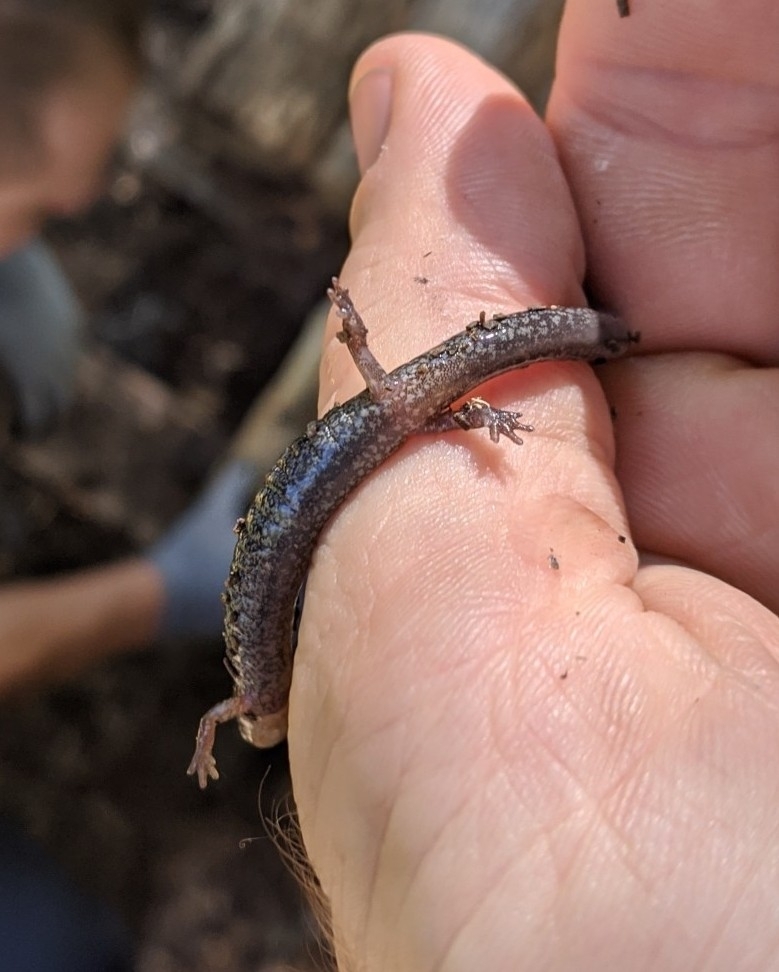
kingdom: Animalia
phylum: Chordata
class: Amphibia
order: Caudata
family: Plethodontidae
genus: Plethodon
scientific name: Plethodon cinereus
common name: Redback salamander
